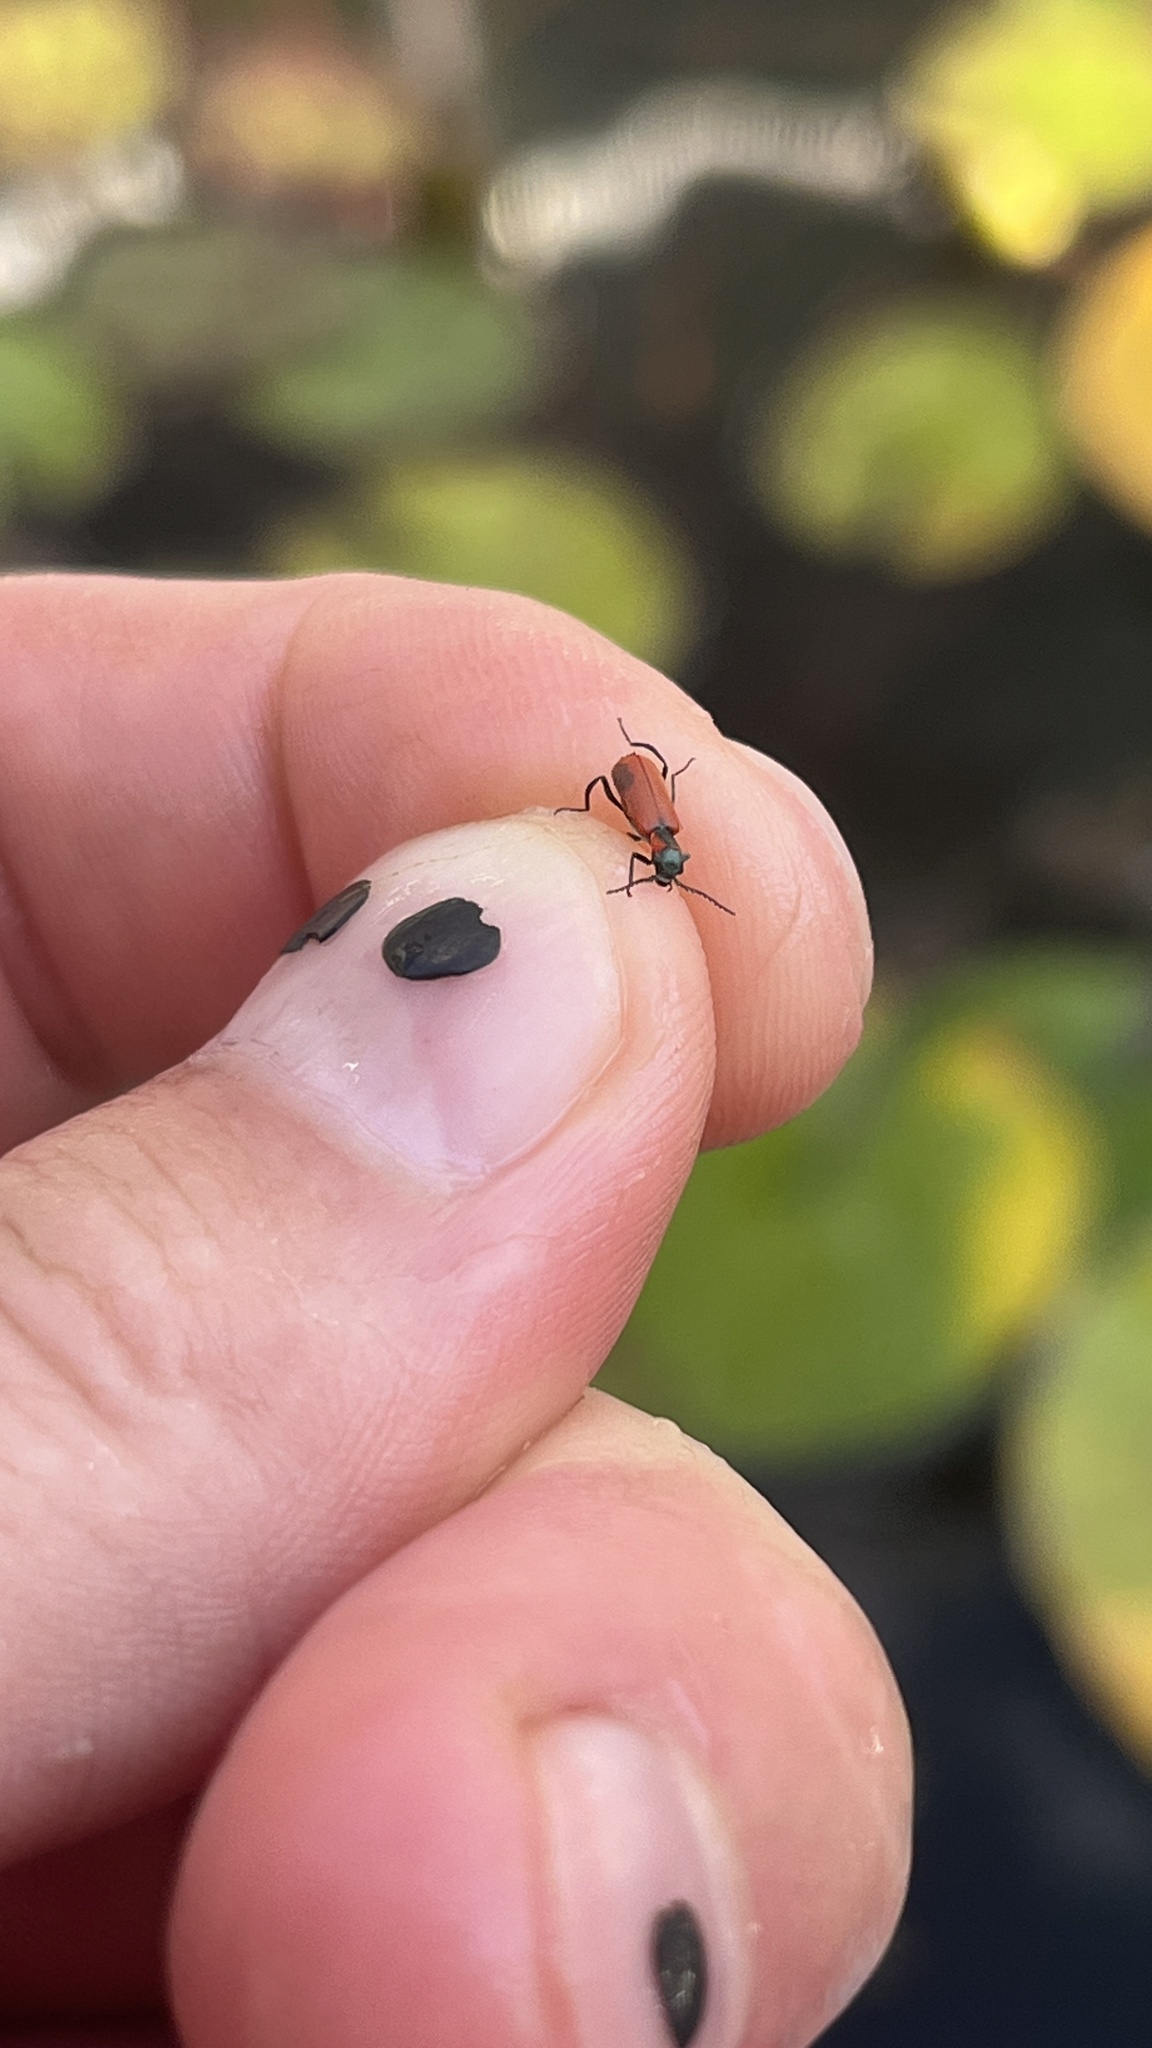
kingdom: Animalia
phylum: Arthropoda
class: Insecta
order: Coleoptera
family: Melyridae
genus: Anthocomus
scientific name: Anthocomus rufus
